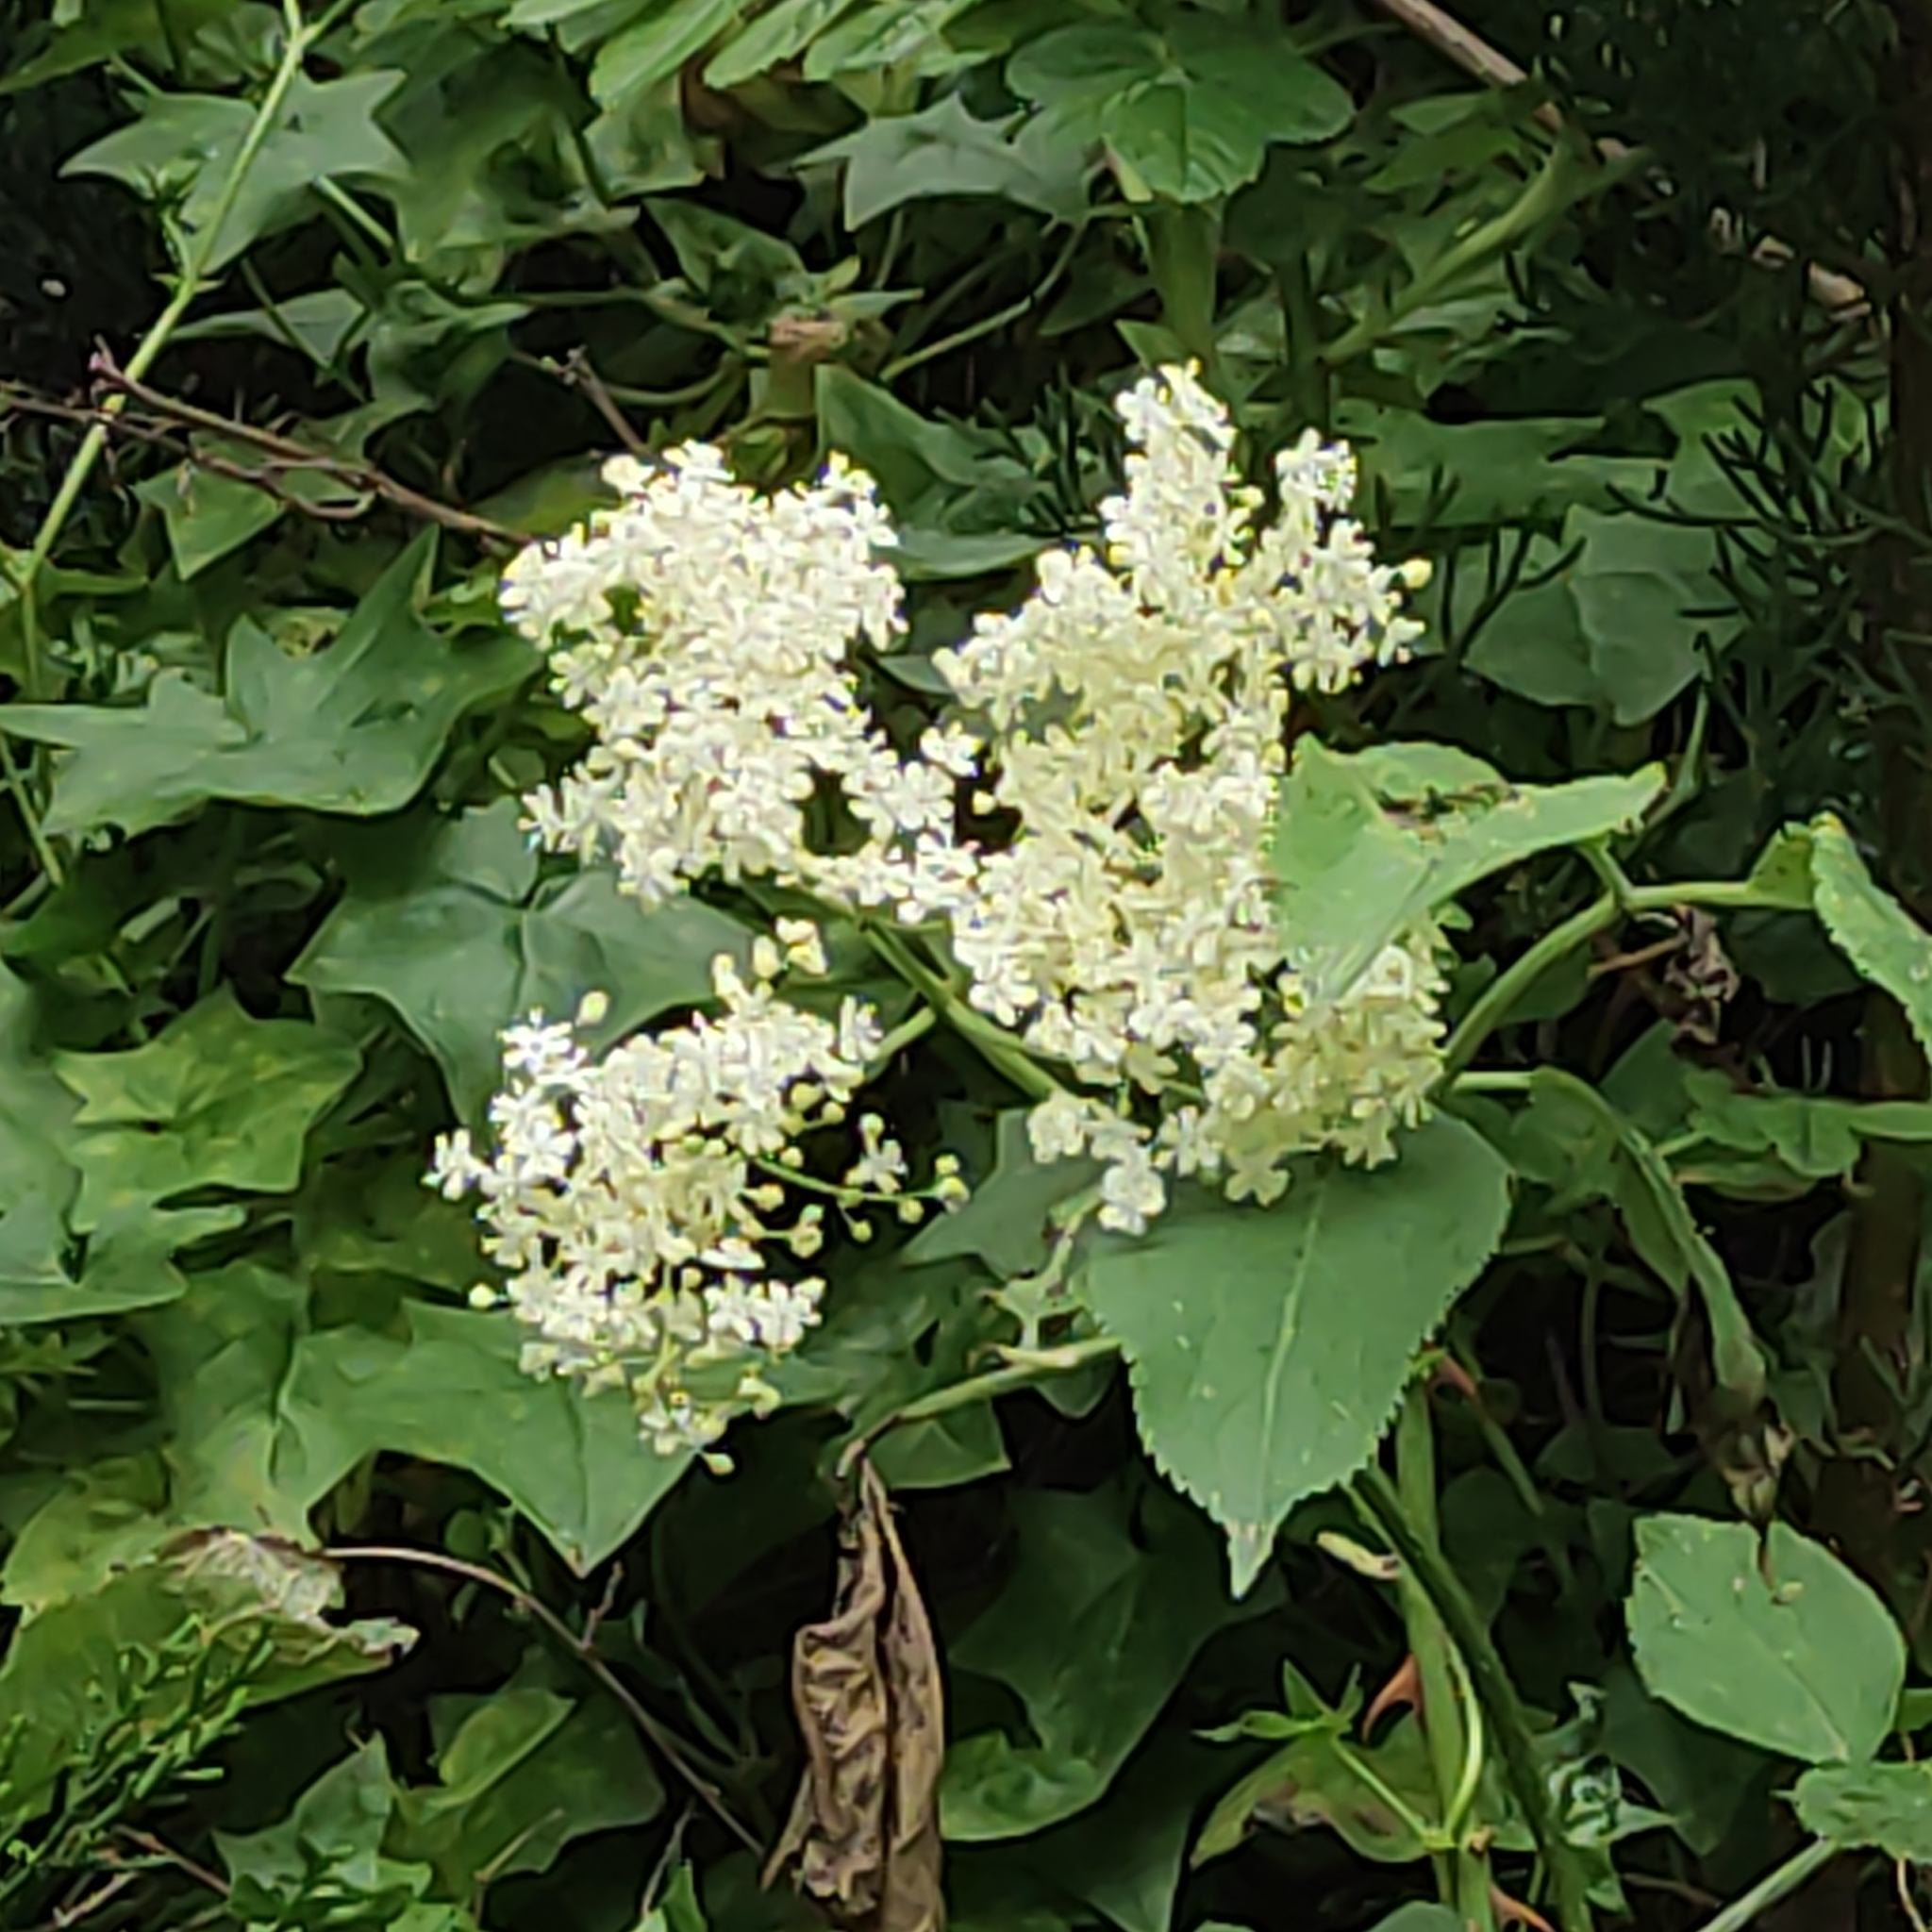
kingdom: Plantae
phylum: Tracheophyta
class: Magnoliopsida
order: Dipsacales
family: Viburnaceae
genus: Sambucus
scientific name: Sambucus nigra
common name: Elder
